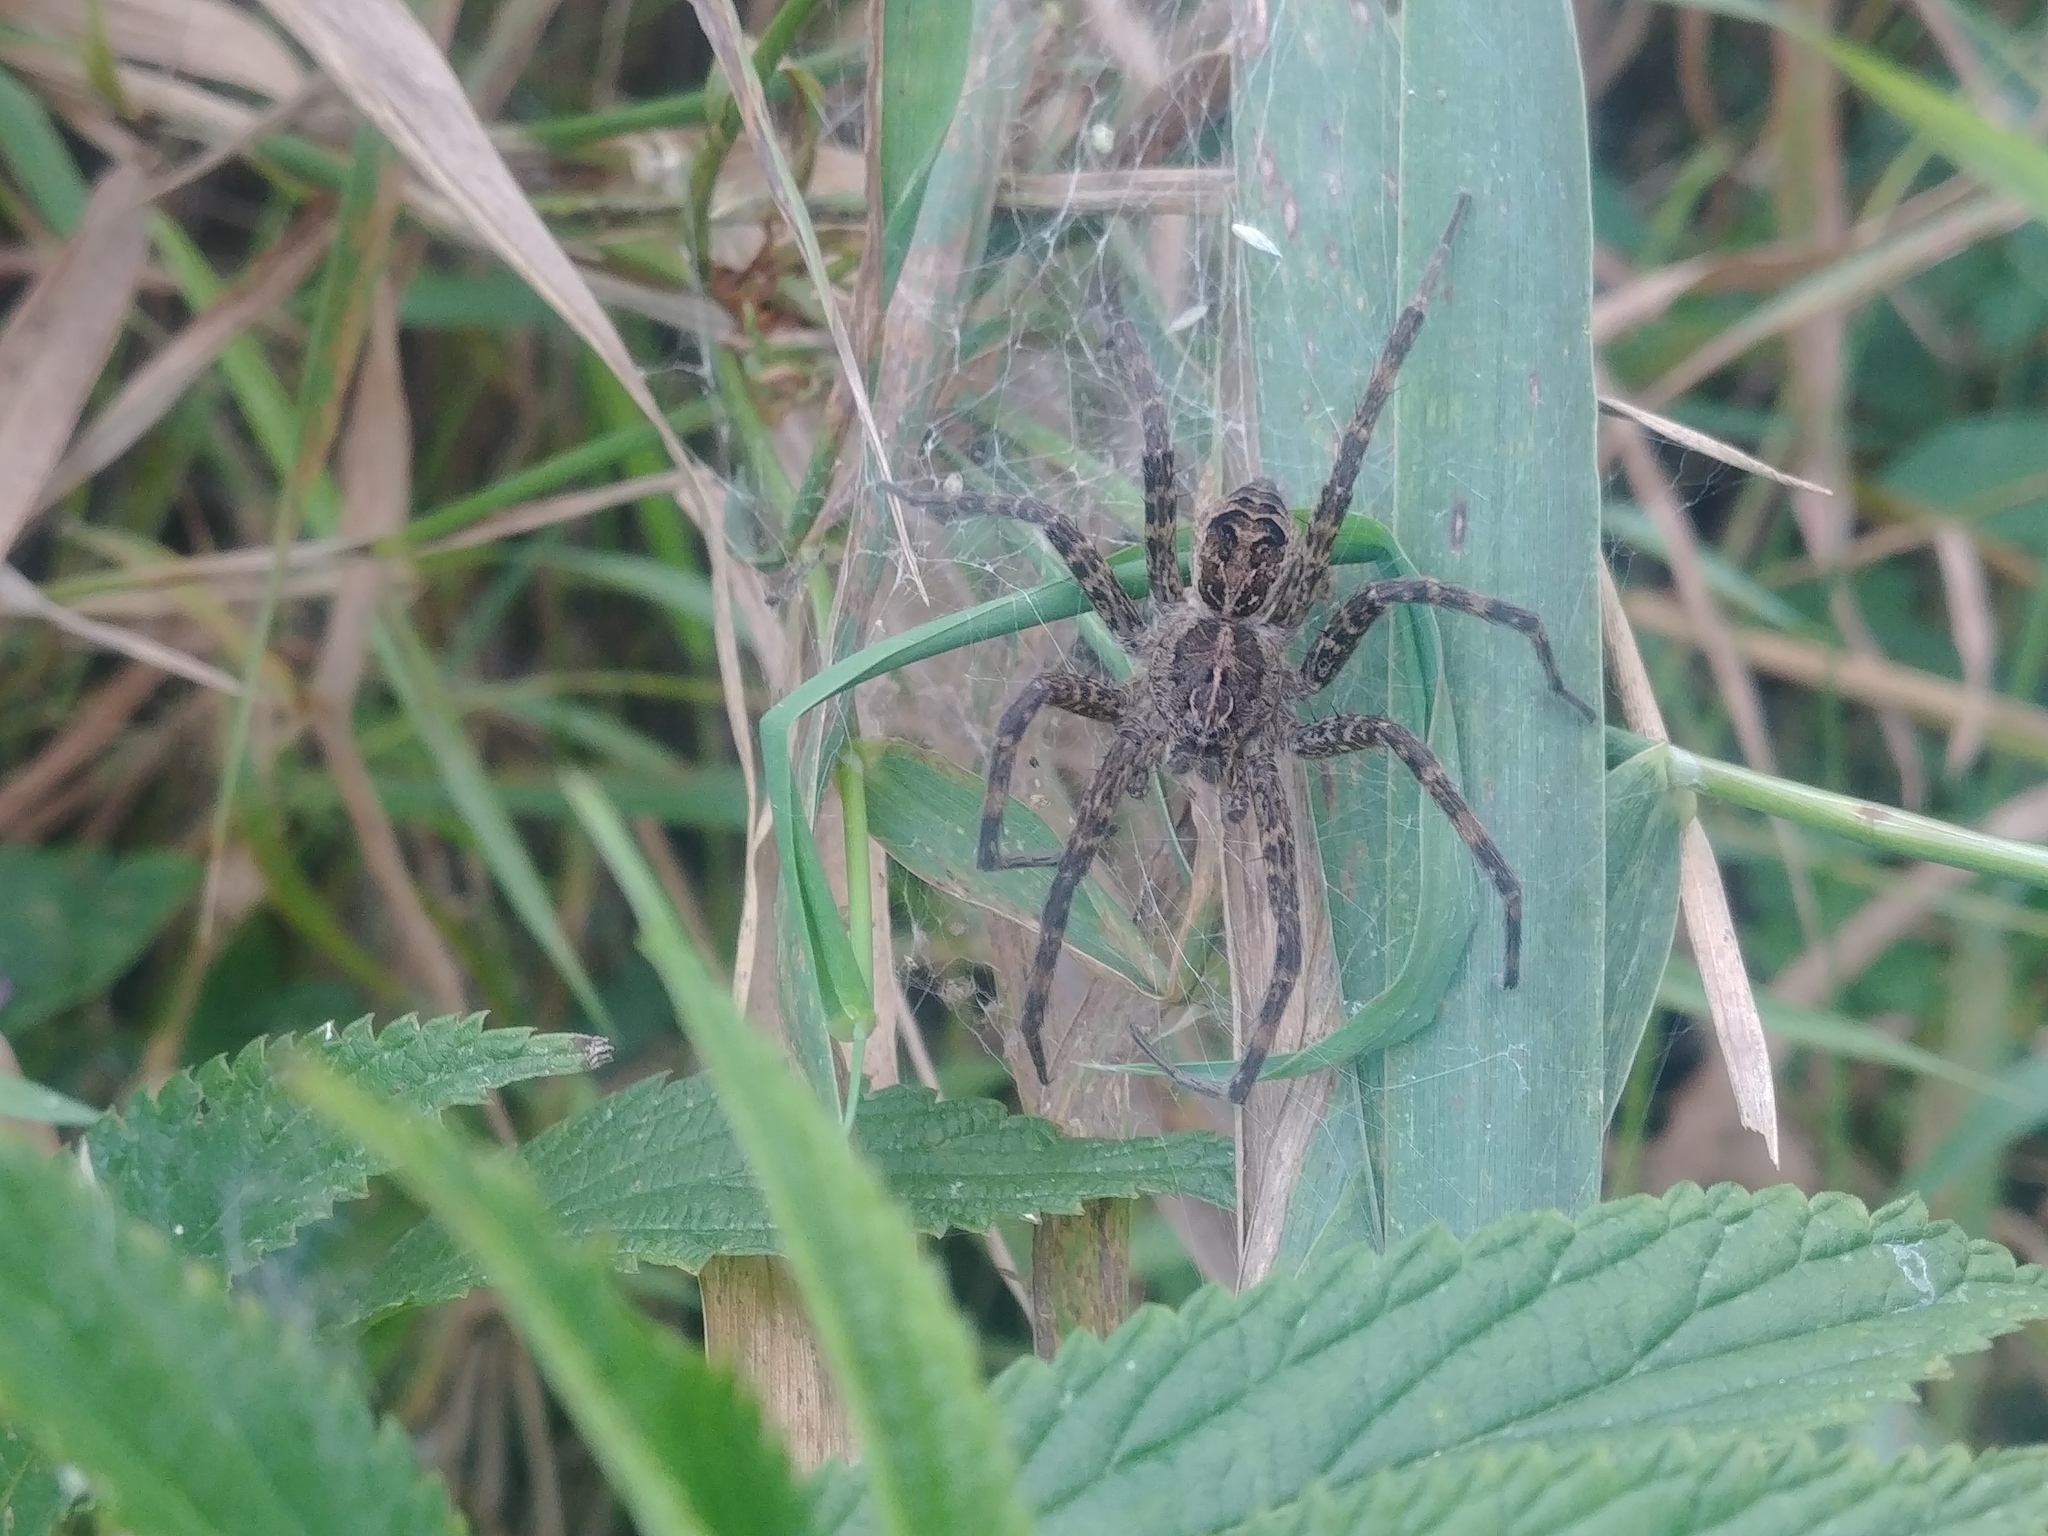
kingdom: Animalia
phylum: Arthropoda
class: Arachnida
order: Araneae
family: Pisauridae
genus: Dolomedes
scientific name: Dolomedes scriptus
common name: Striped fishing spider
